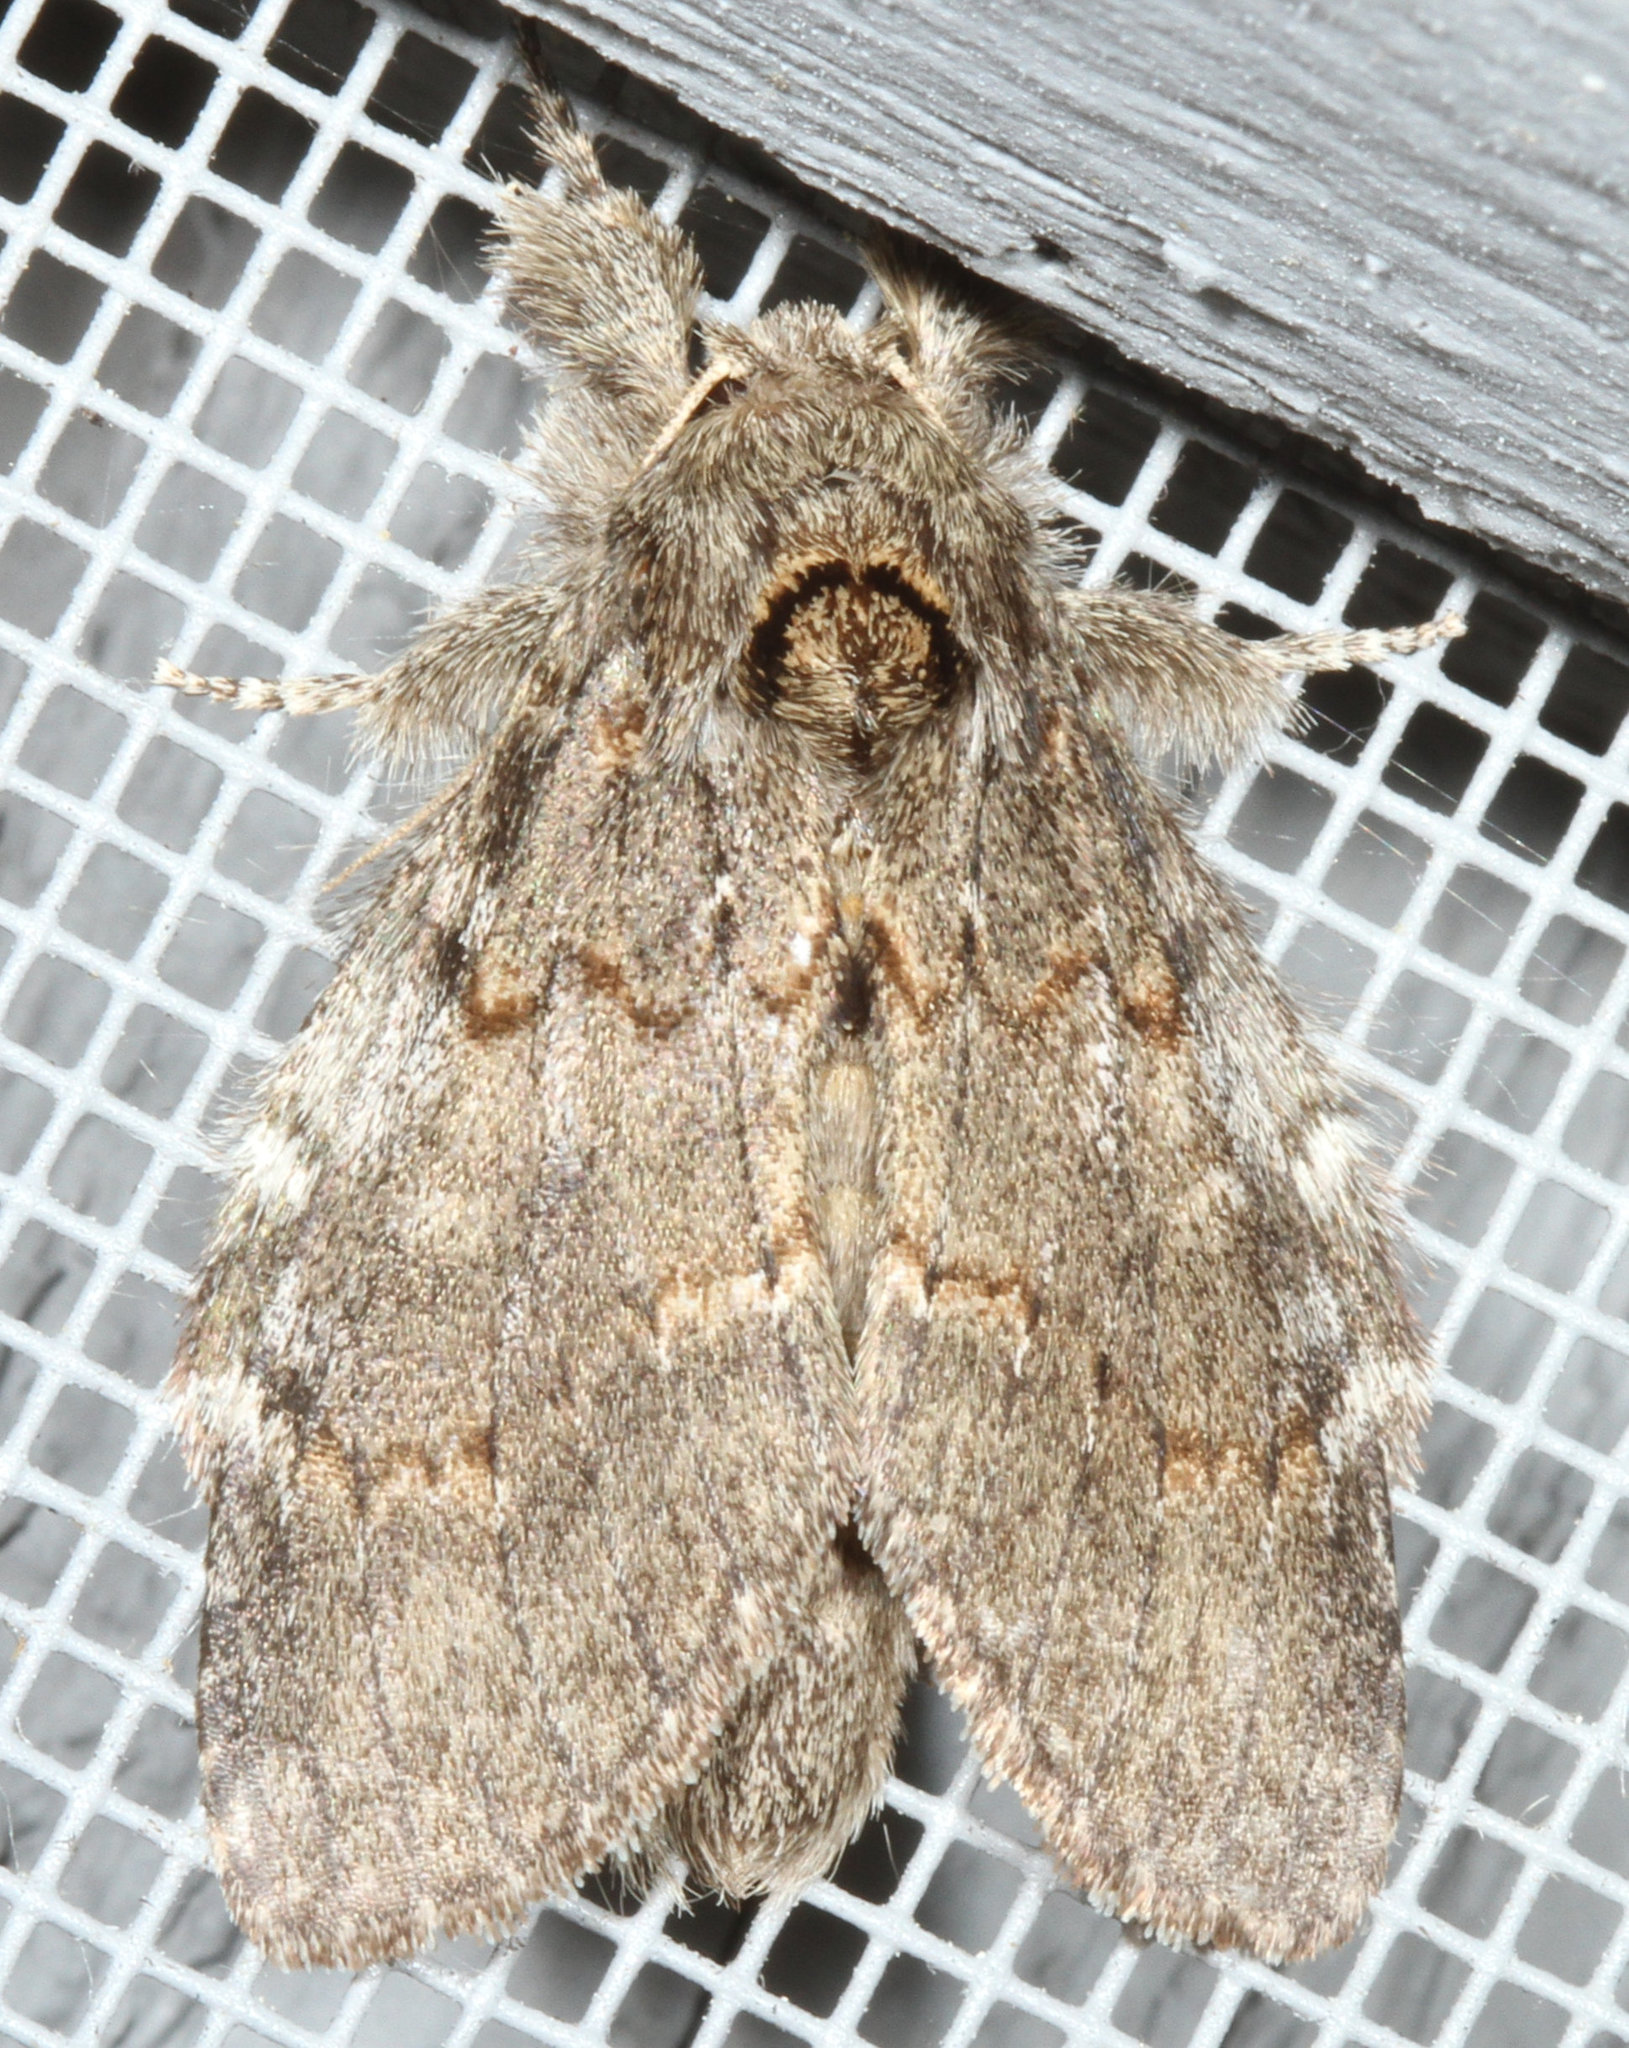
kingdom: Animalia
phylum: Arthropoda
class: Insecta
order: Lepidoptera
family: Notodontidae
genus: Peridea
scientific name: Peridea angulosa
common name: Angulose prominent
